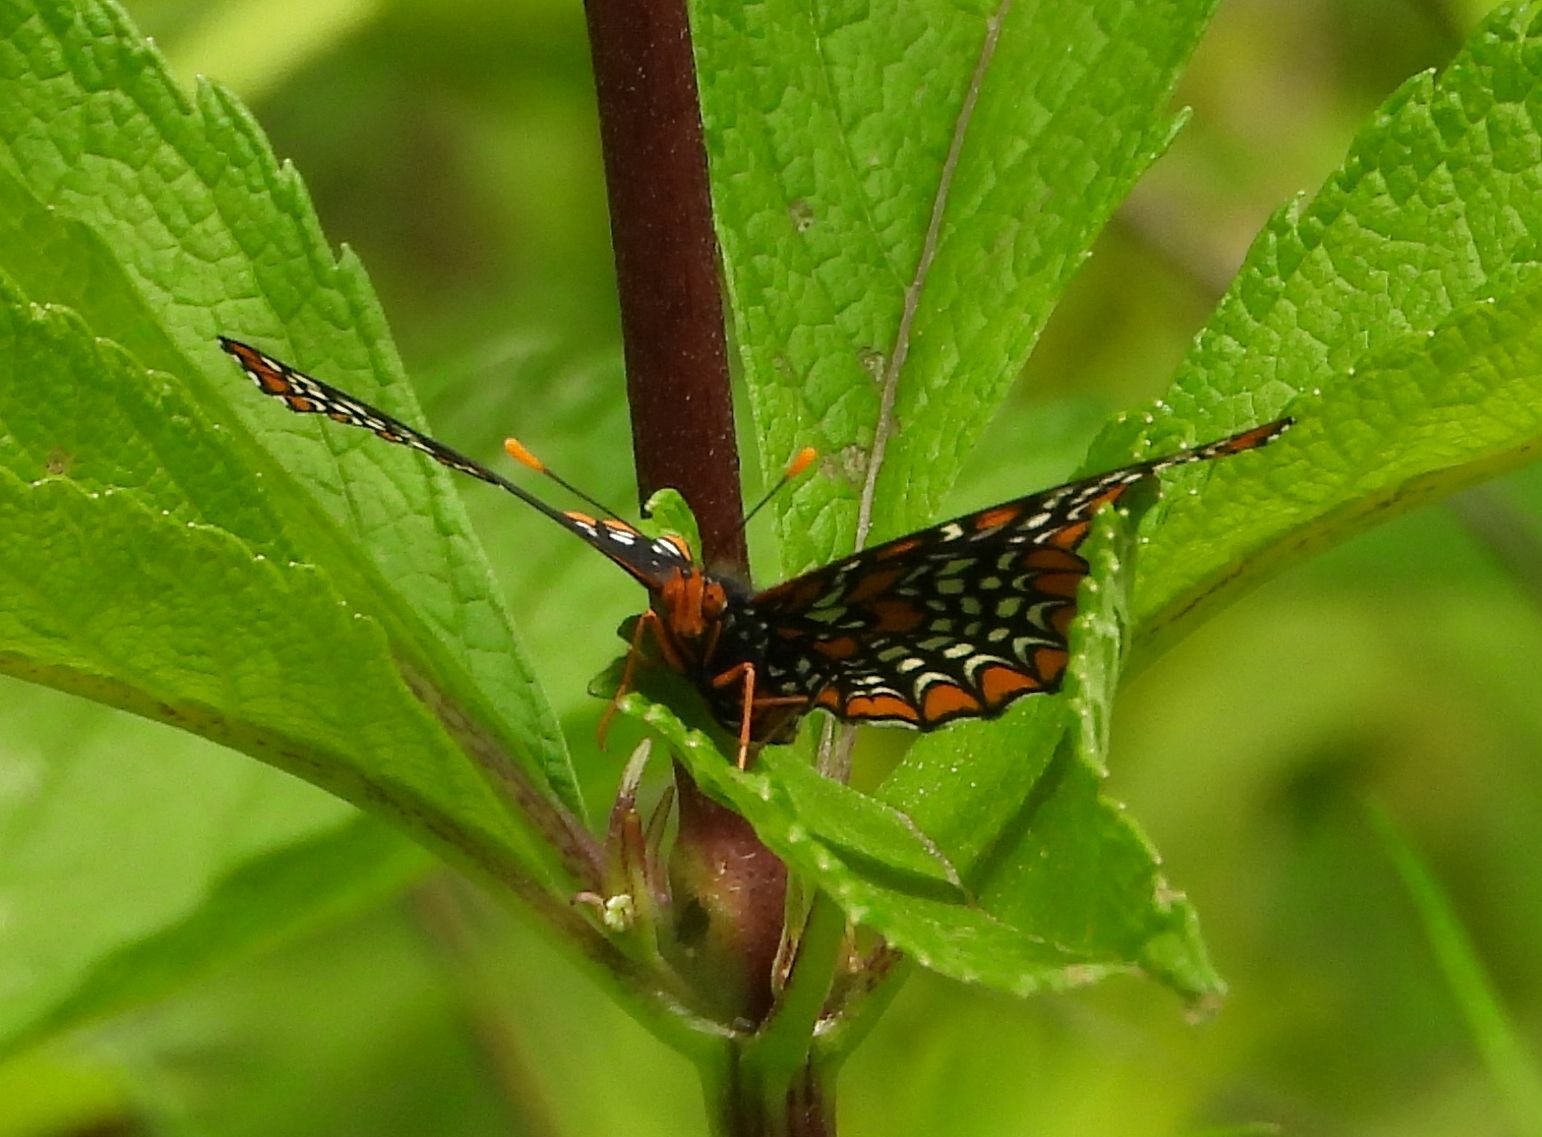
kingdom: Animalia
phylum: Arthropoda
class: Insecta
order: Lepidoptera
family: Nymphalidae
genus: Euphydryas
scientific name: Euphydryas phaeton
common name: Baltimore checkerspot
